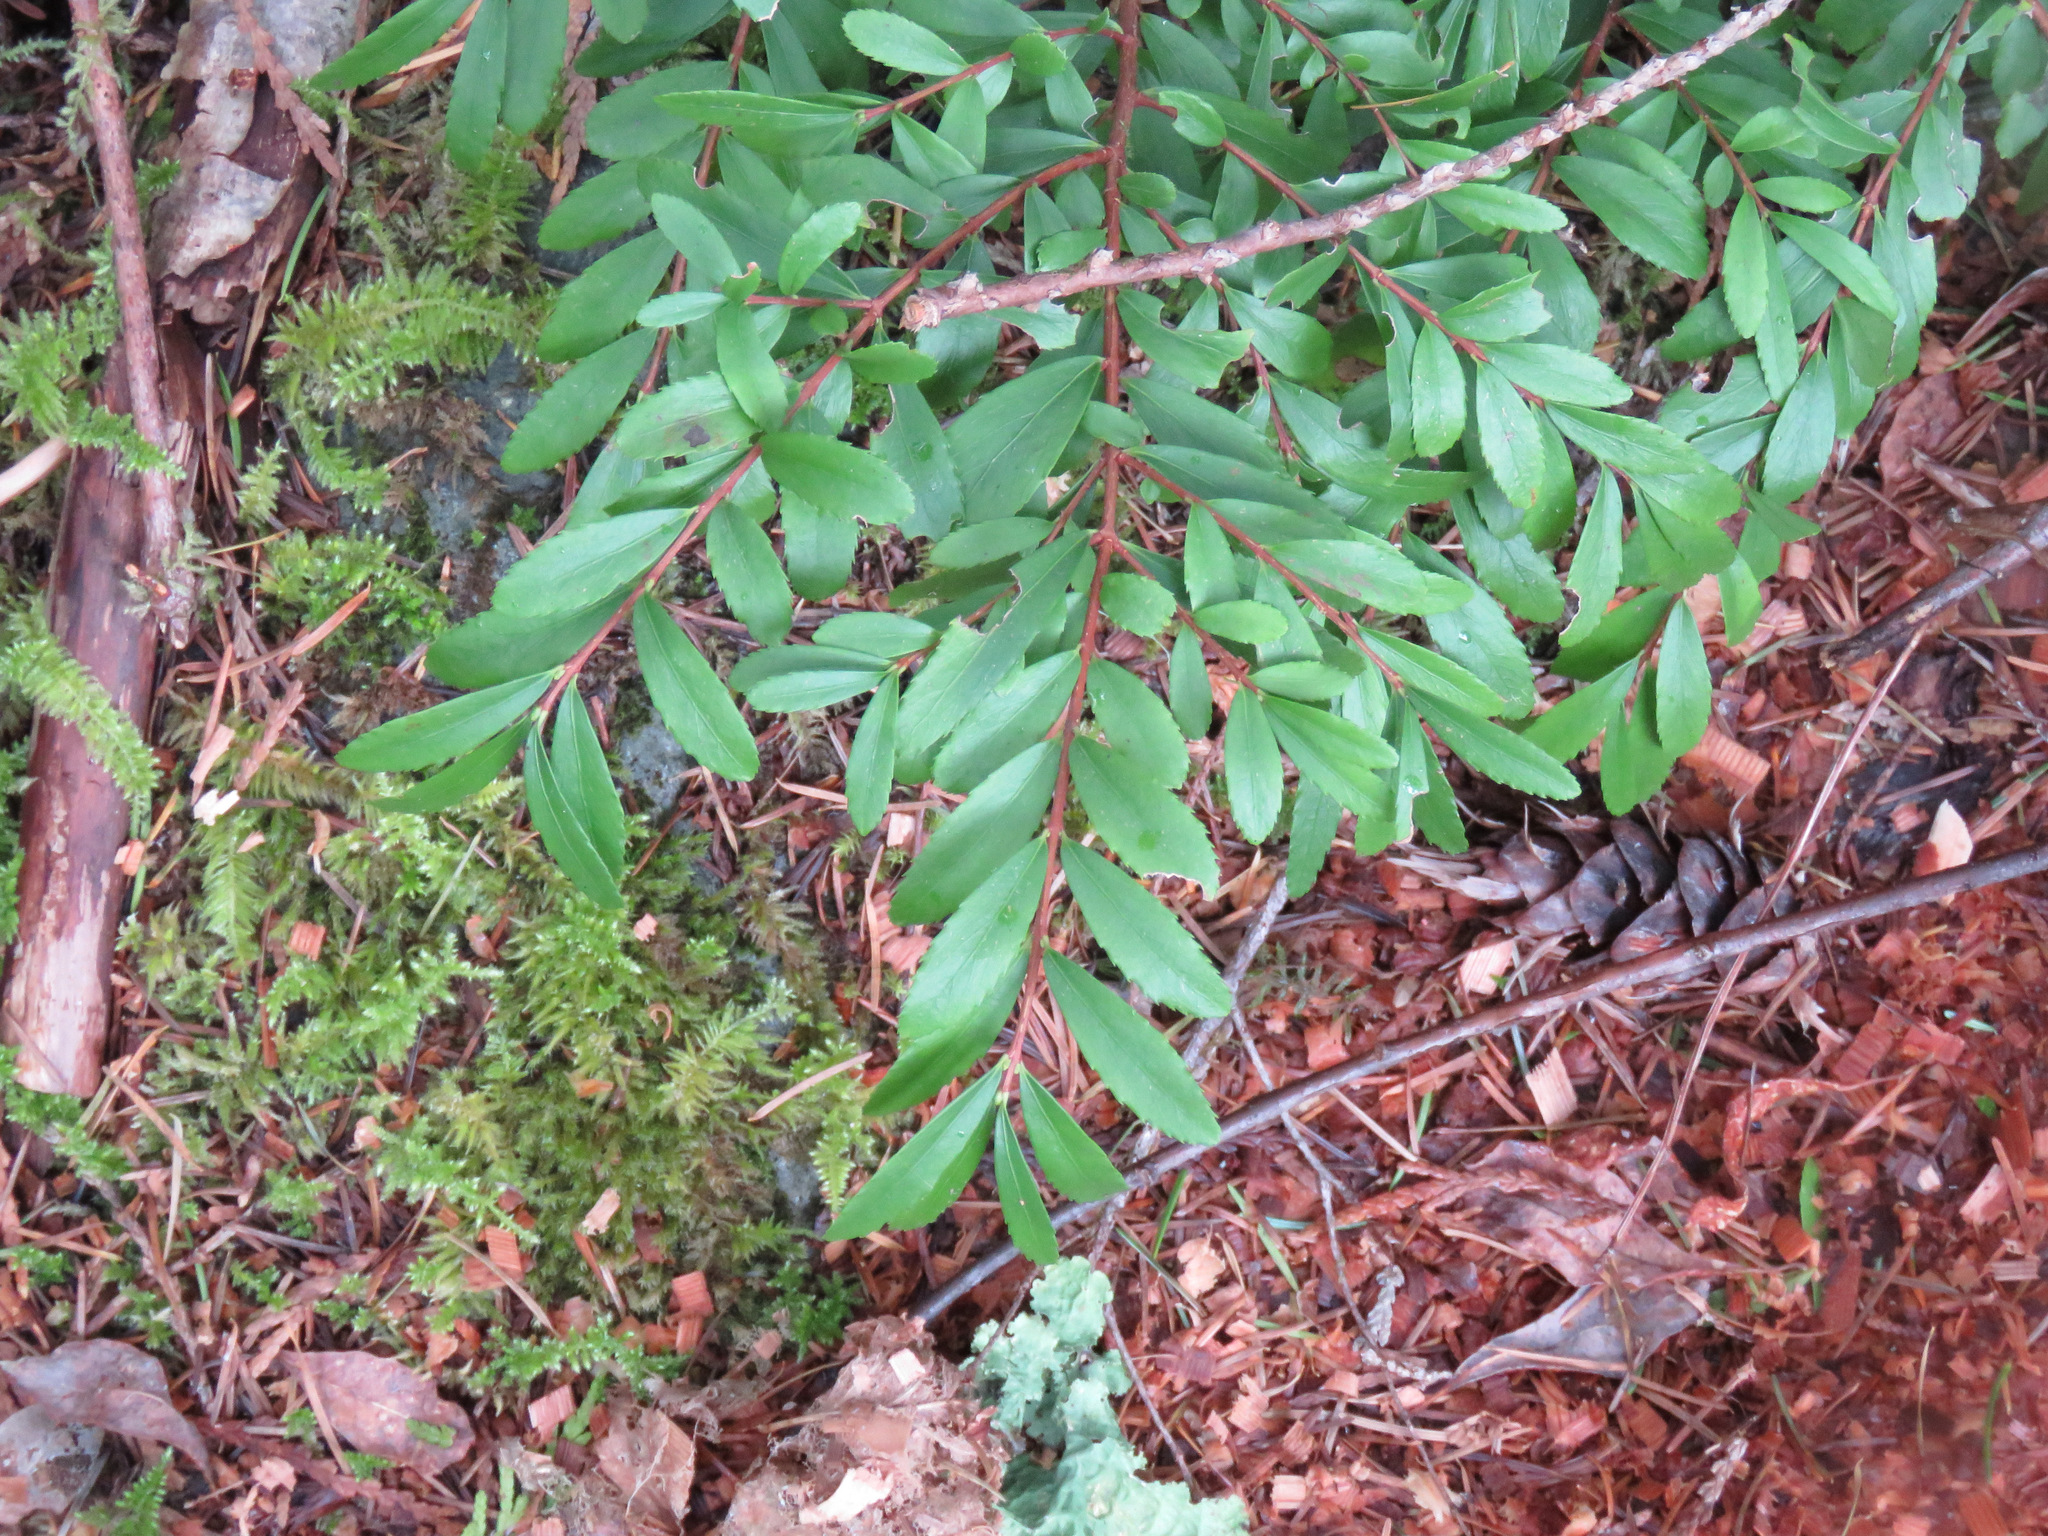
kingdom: Plantae
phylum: Tracheophyta
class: Magnoliopsida
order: Celastrales
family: Celastraceae
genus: Paxistima
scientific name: Paxistima myrsinites
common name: Mountain-lover
